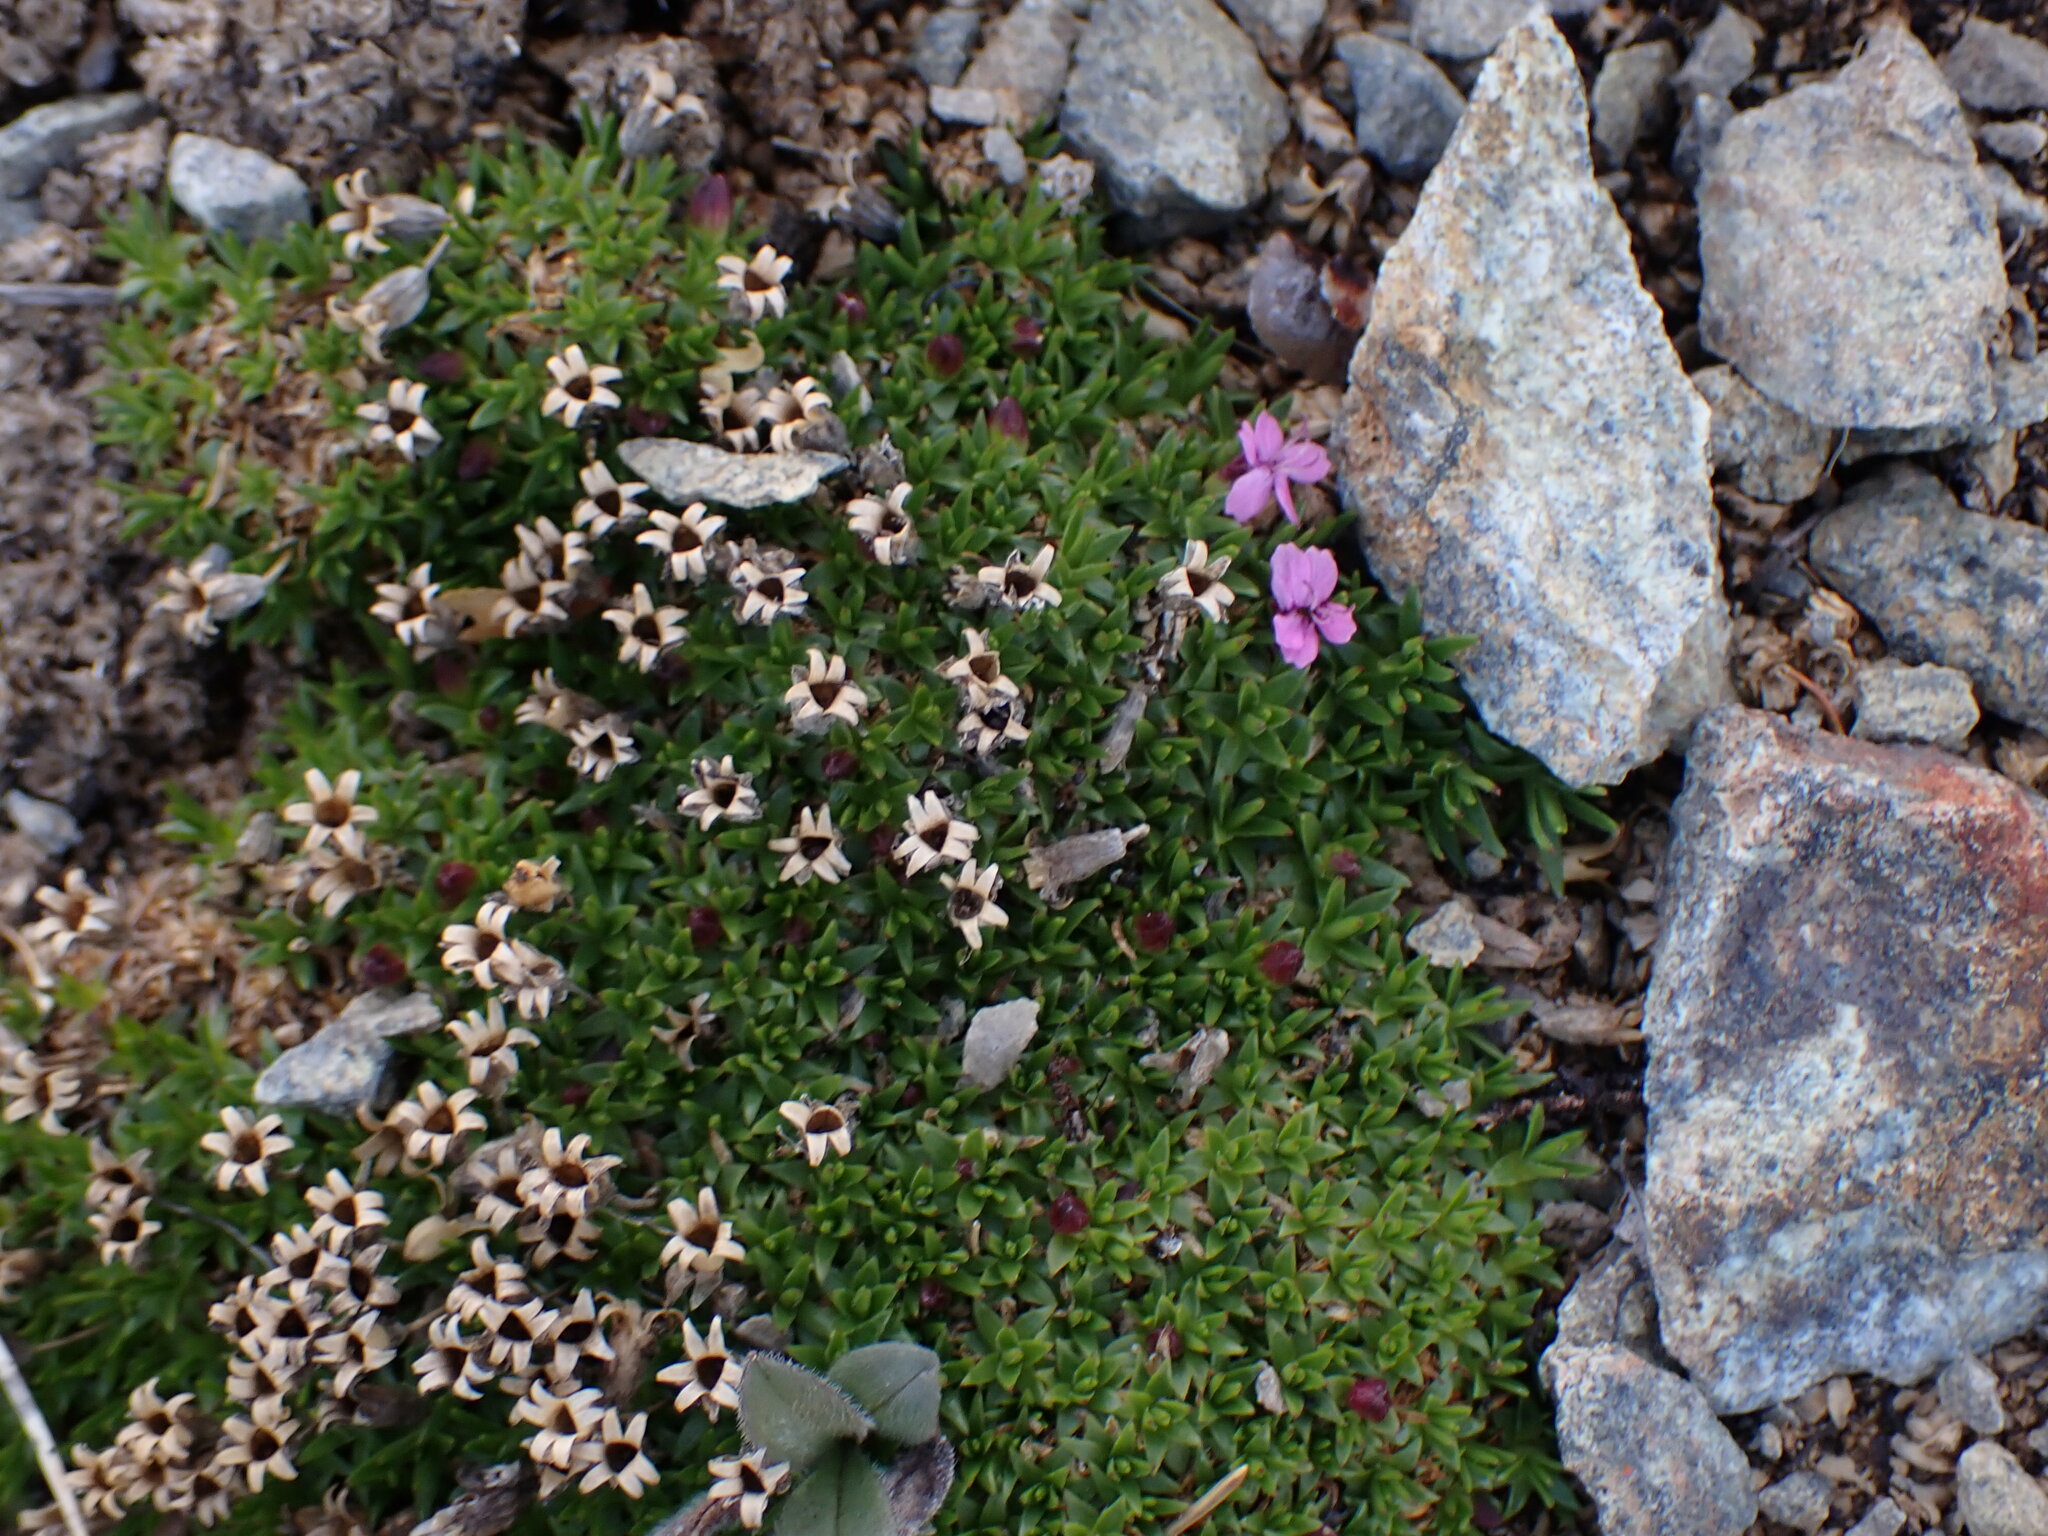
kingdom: Plantae
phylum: Tracheophyta
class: Magnoliopsida
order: Caryophyllales
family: Caryophyllaceae
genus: Silene
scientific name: Silene acaulis
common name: Moss campion
